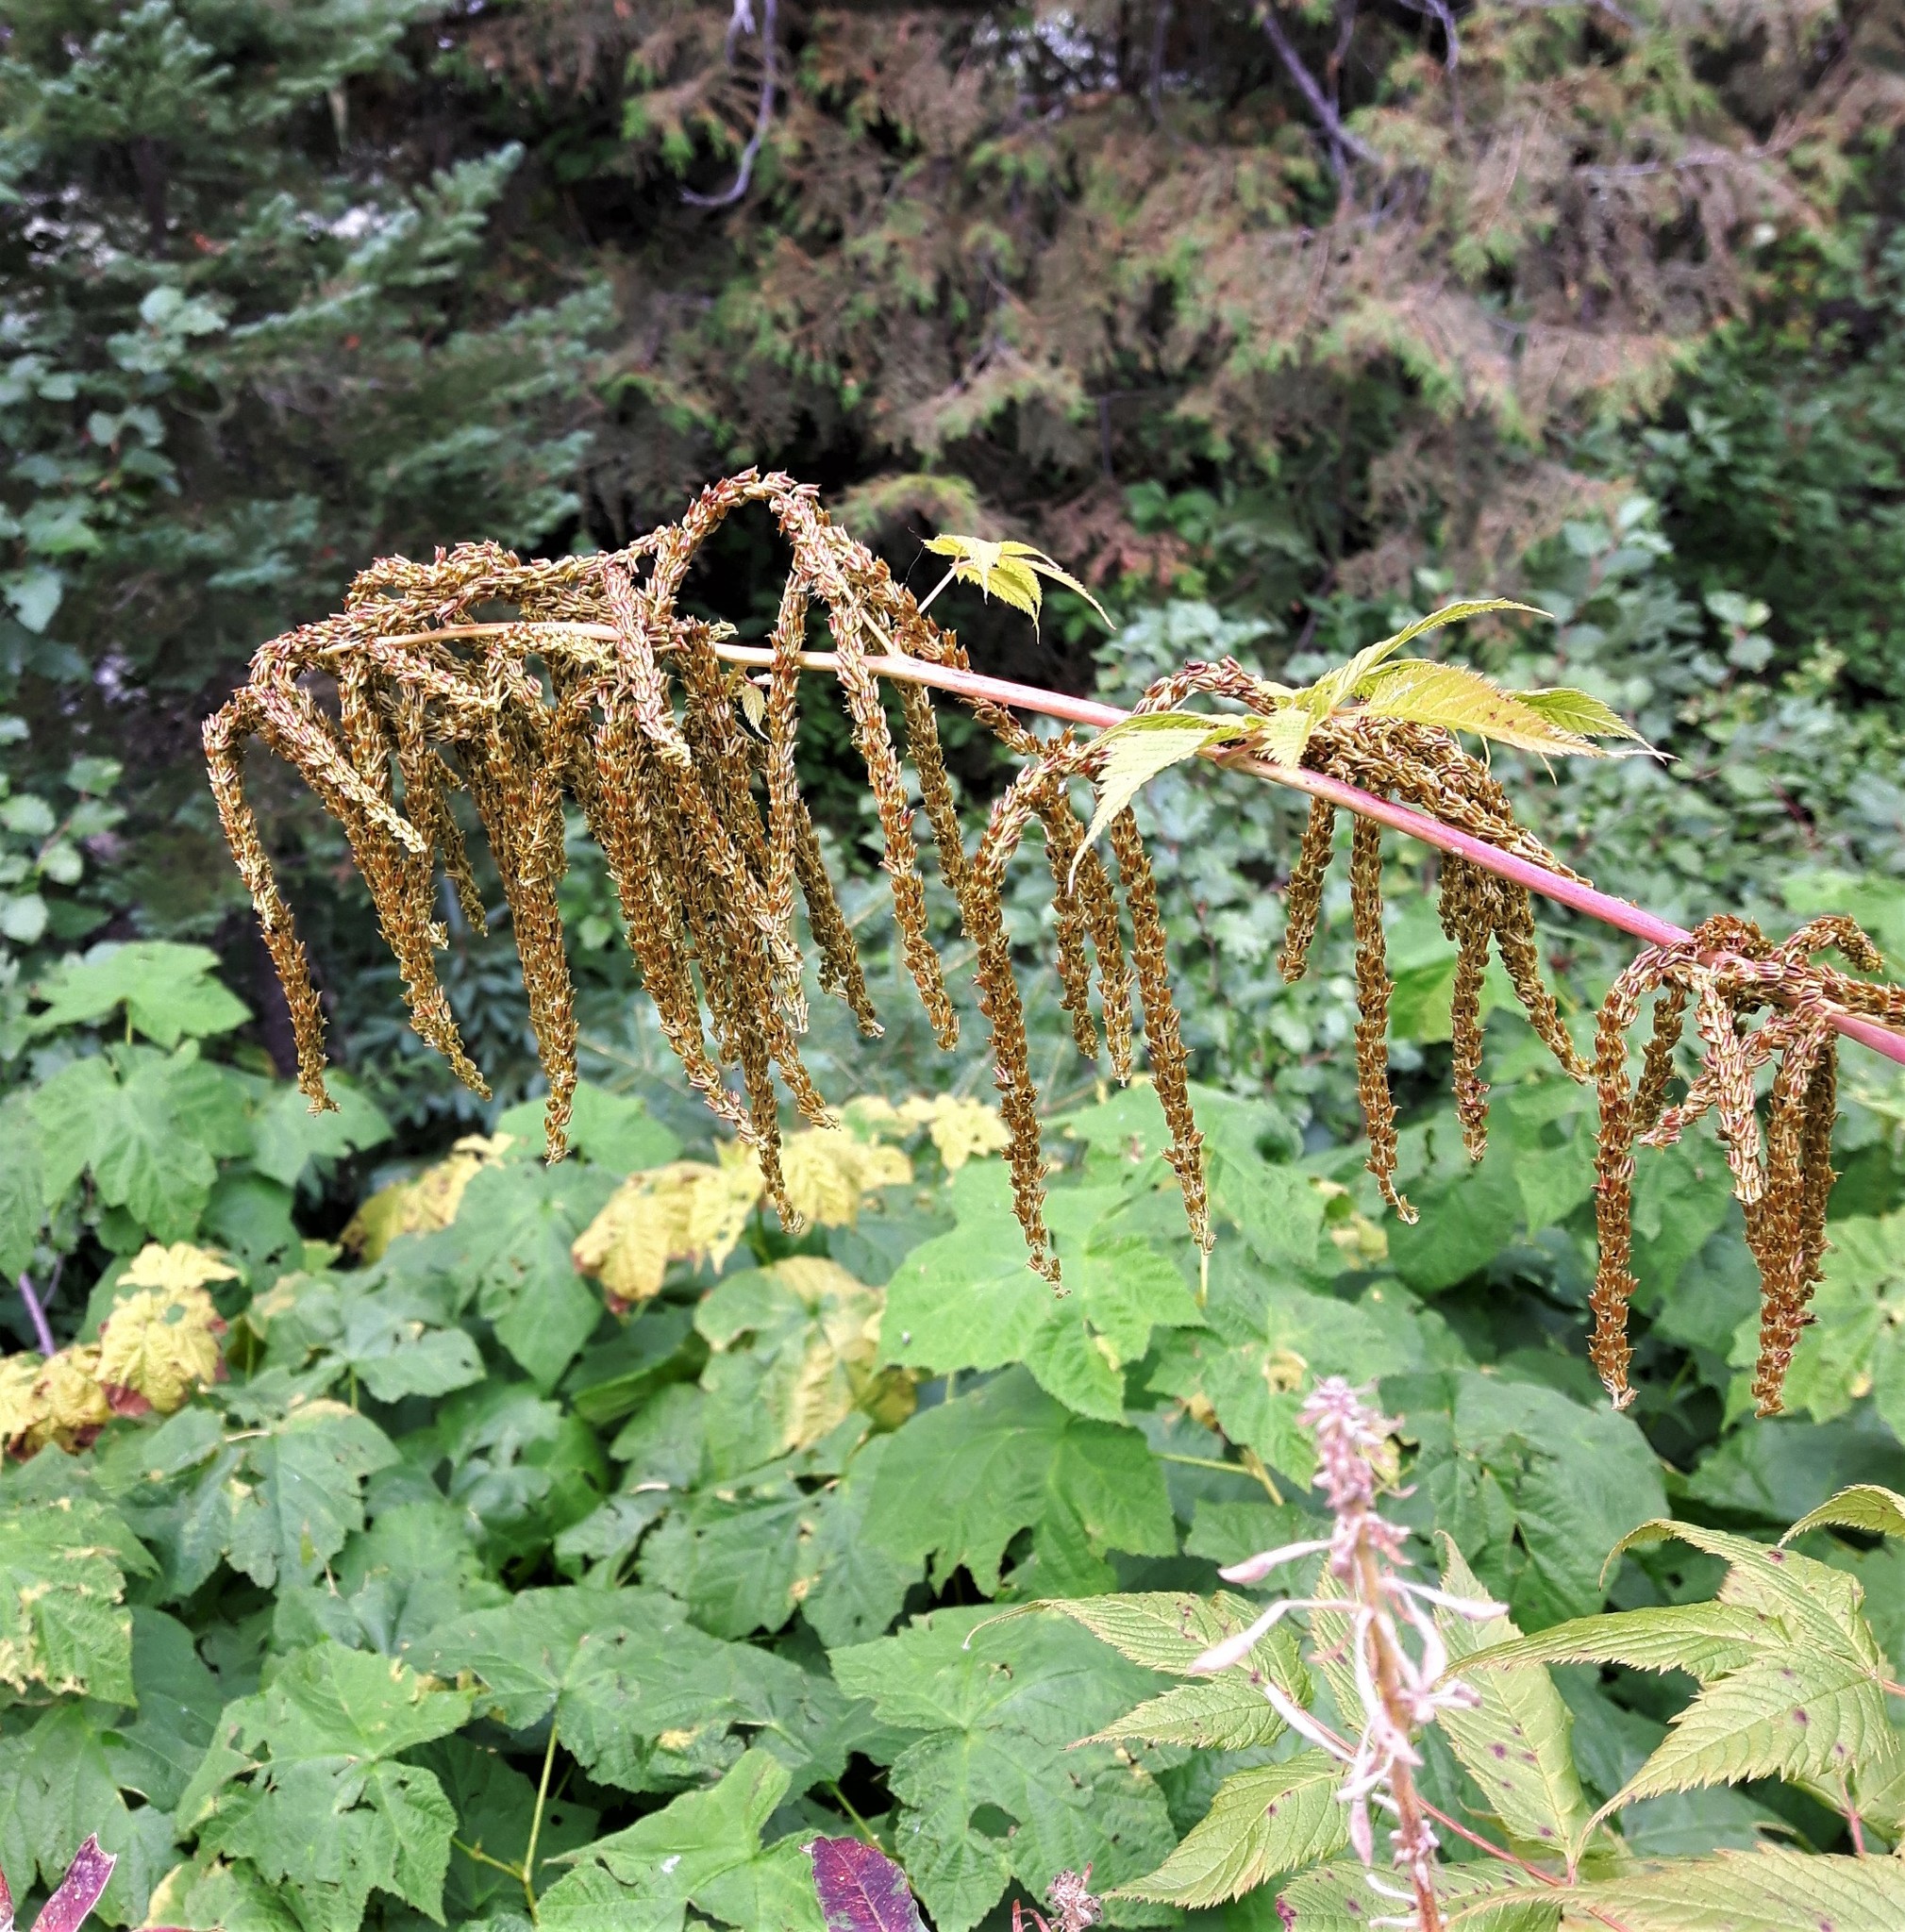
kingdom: Plantae
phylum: Tracheophyta
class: Magnoliopsida
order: Rosales
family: Rosaceae
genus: Aruncus
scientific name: Aruncus dioicus
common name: Buck's-beard
